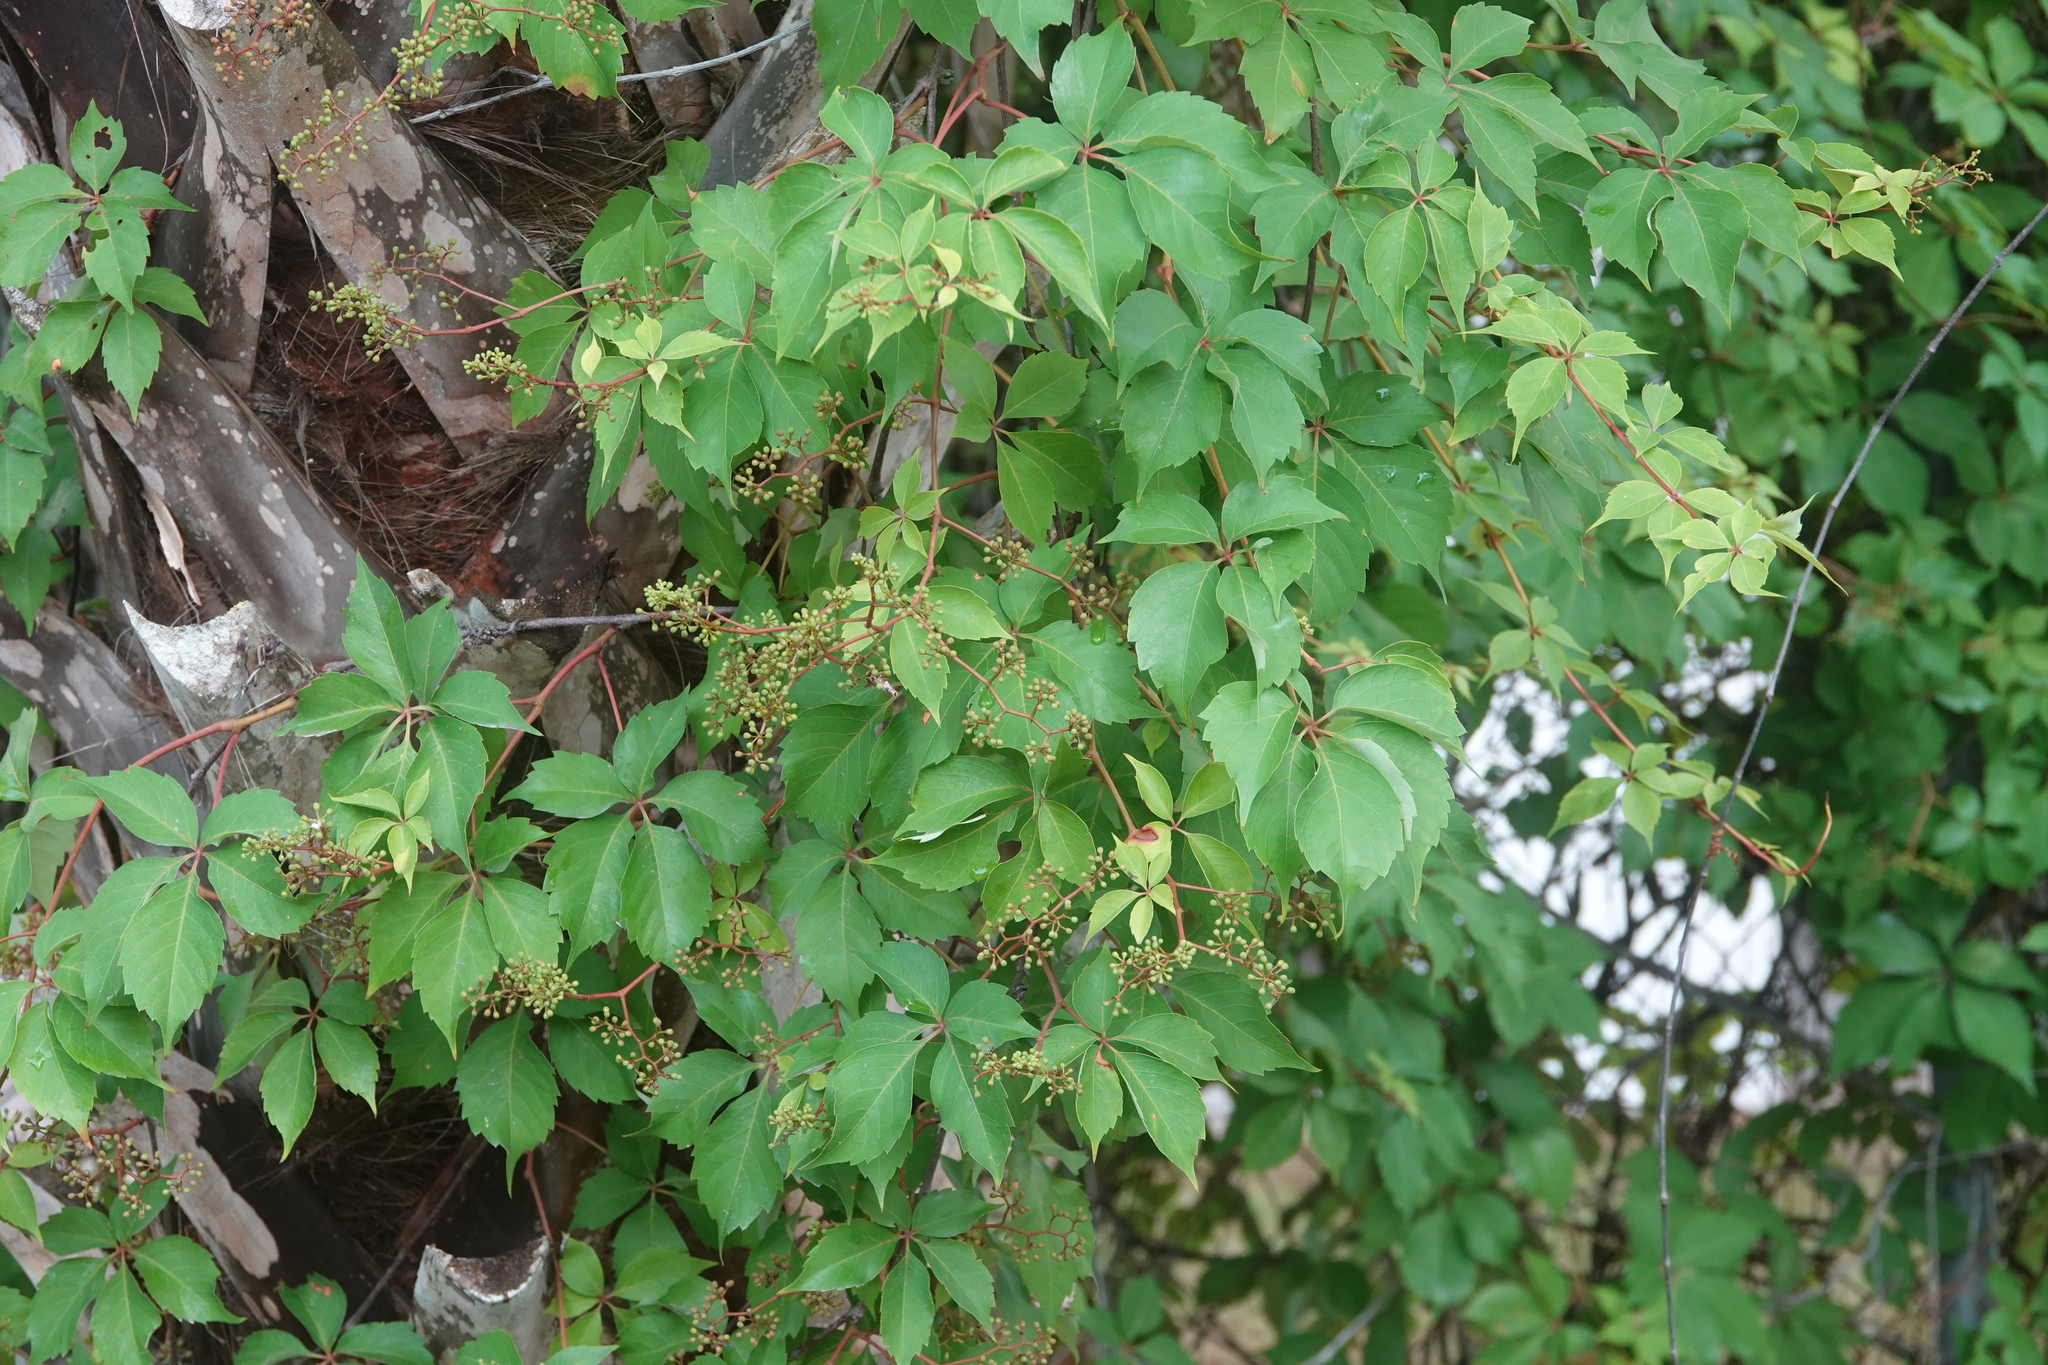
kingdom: Plantae
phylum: Tracheophyta
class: Magnoliopsida
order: Vitales
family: Vitaceae
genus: Parthenocissus
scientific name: Parthenocissus quinquefolia
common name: Virginia-creeper
